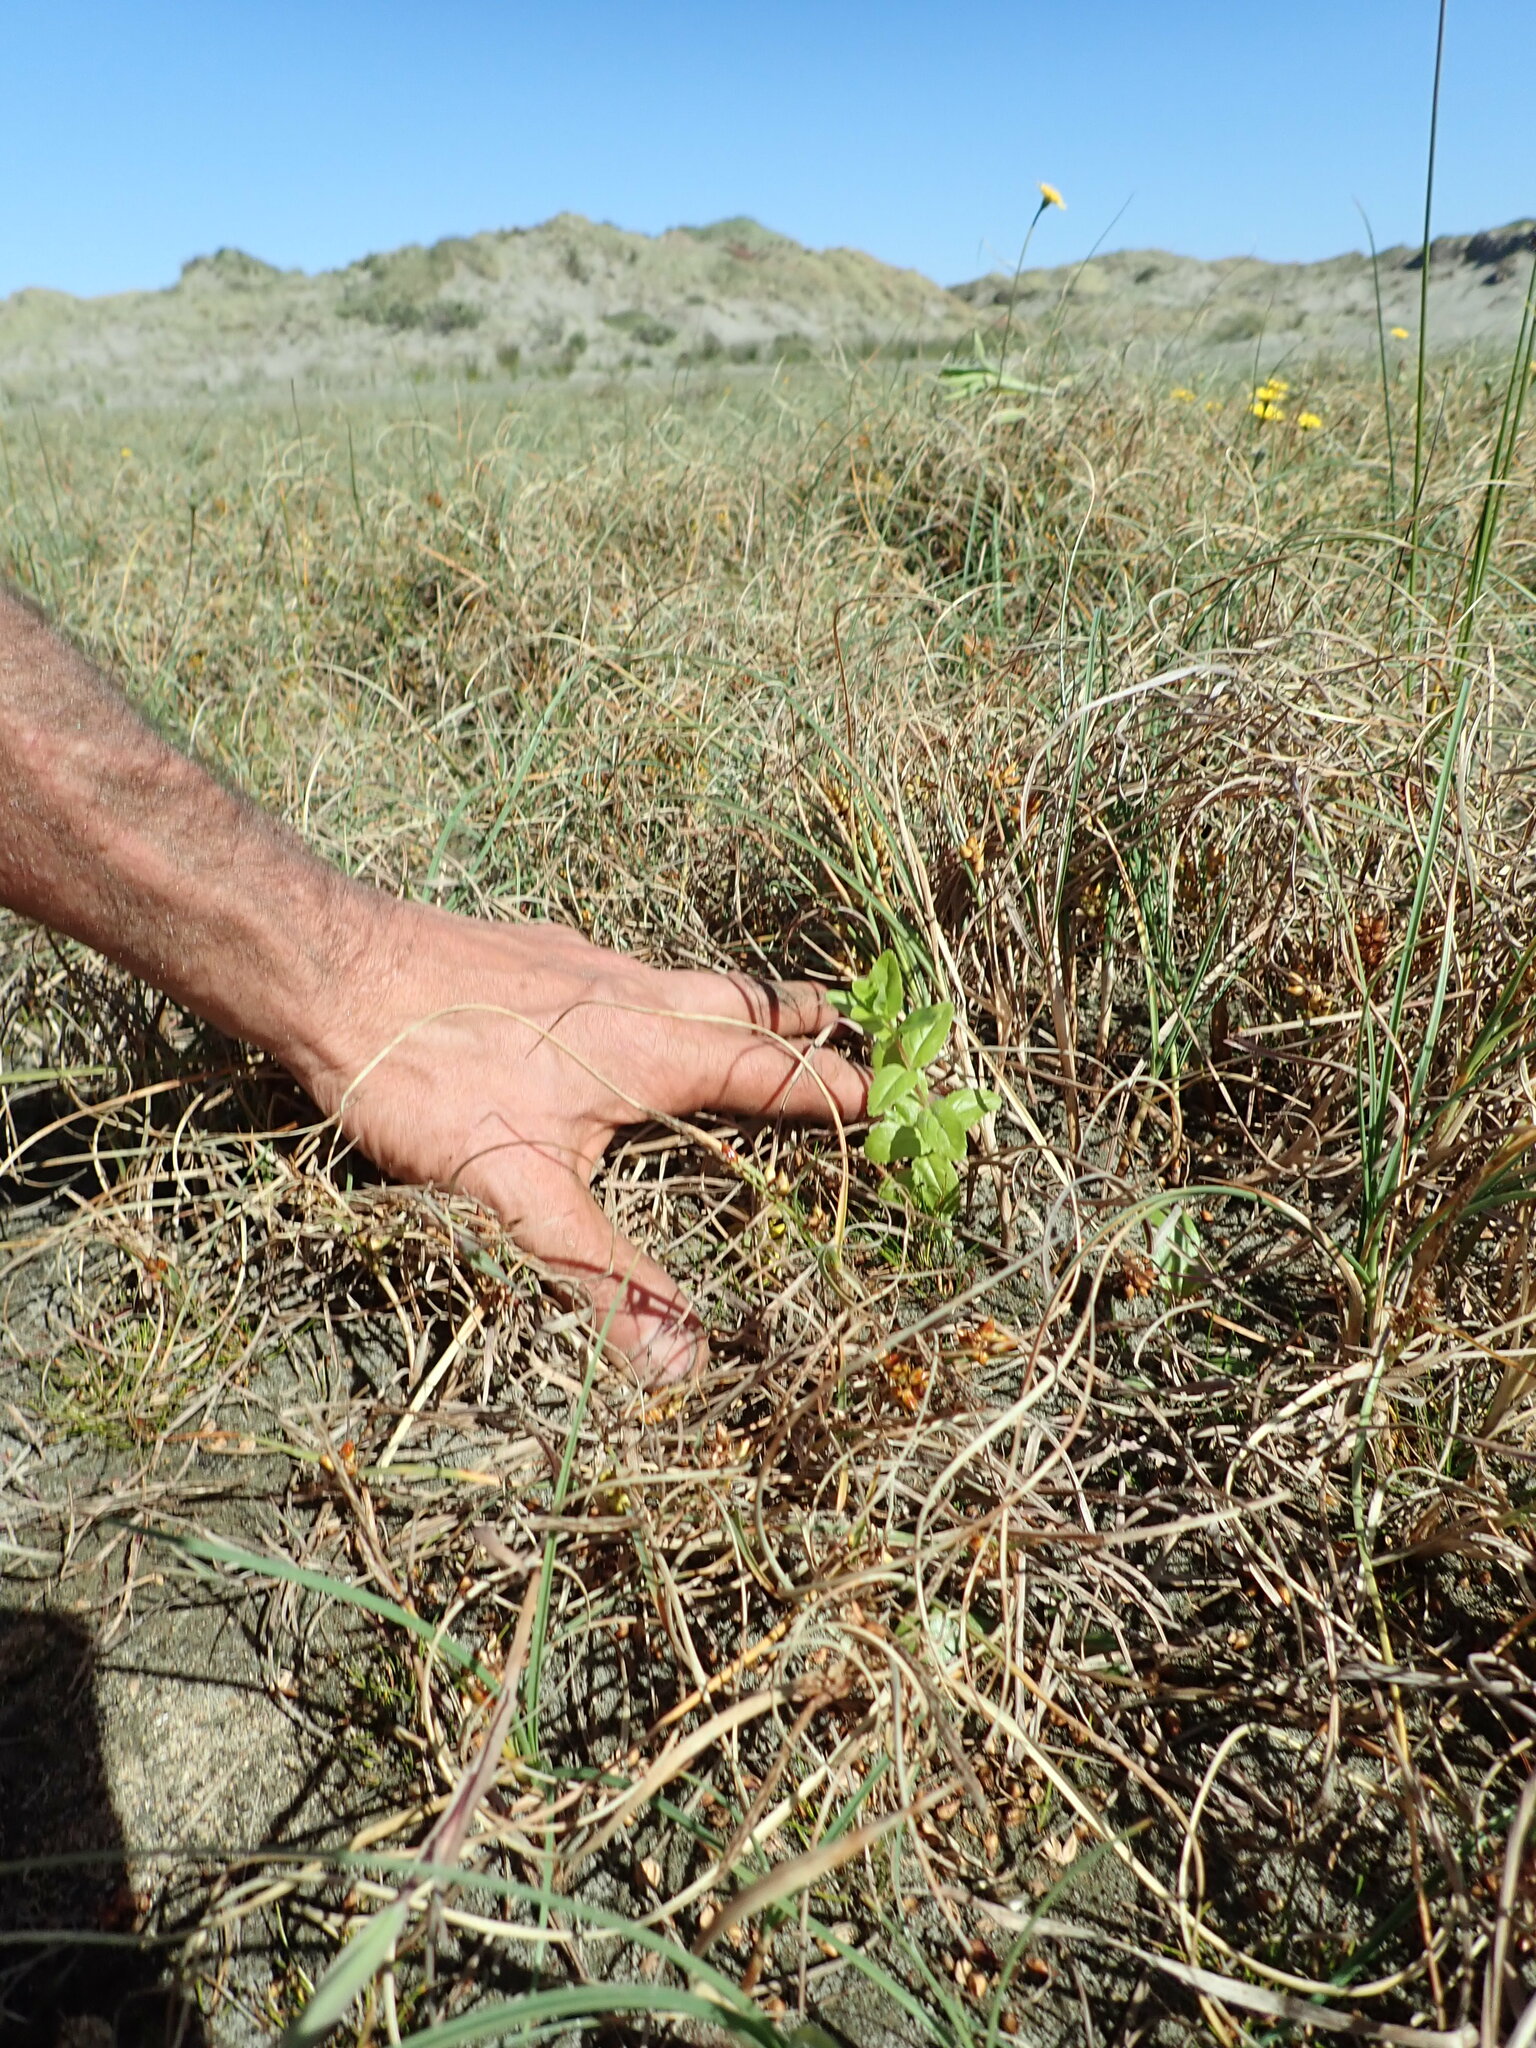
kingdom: Plantae
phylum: Tracheophyta
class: Magnoliopsida
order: Myrtales
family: Onagraceae
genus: Epilobium
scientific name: Epilobium billardiereanum
